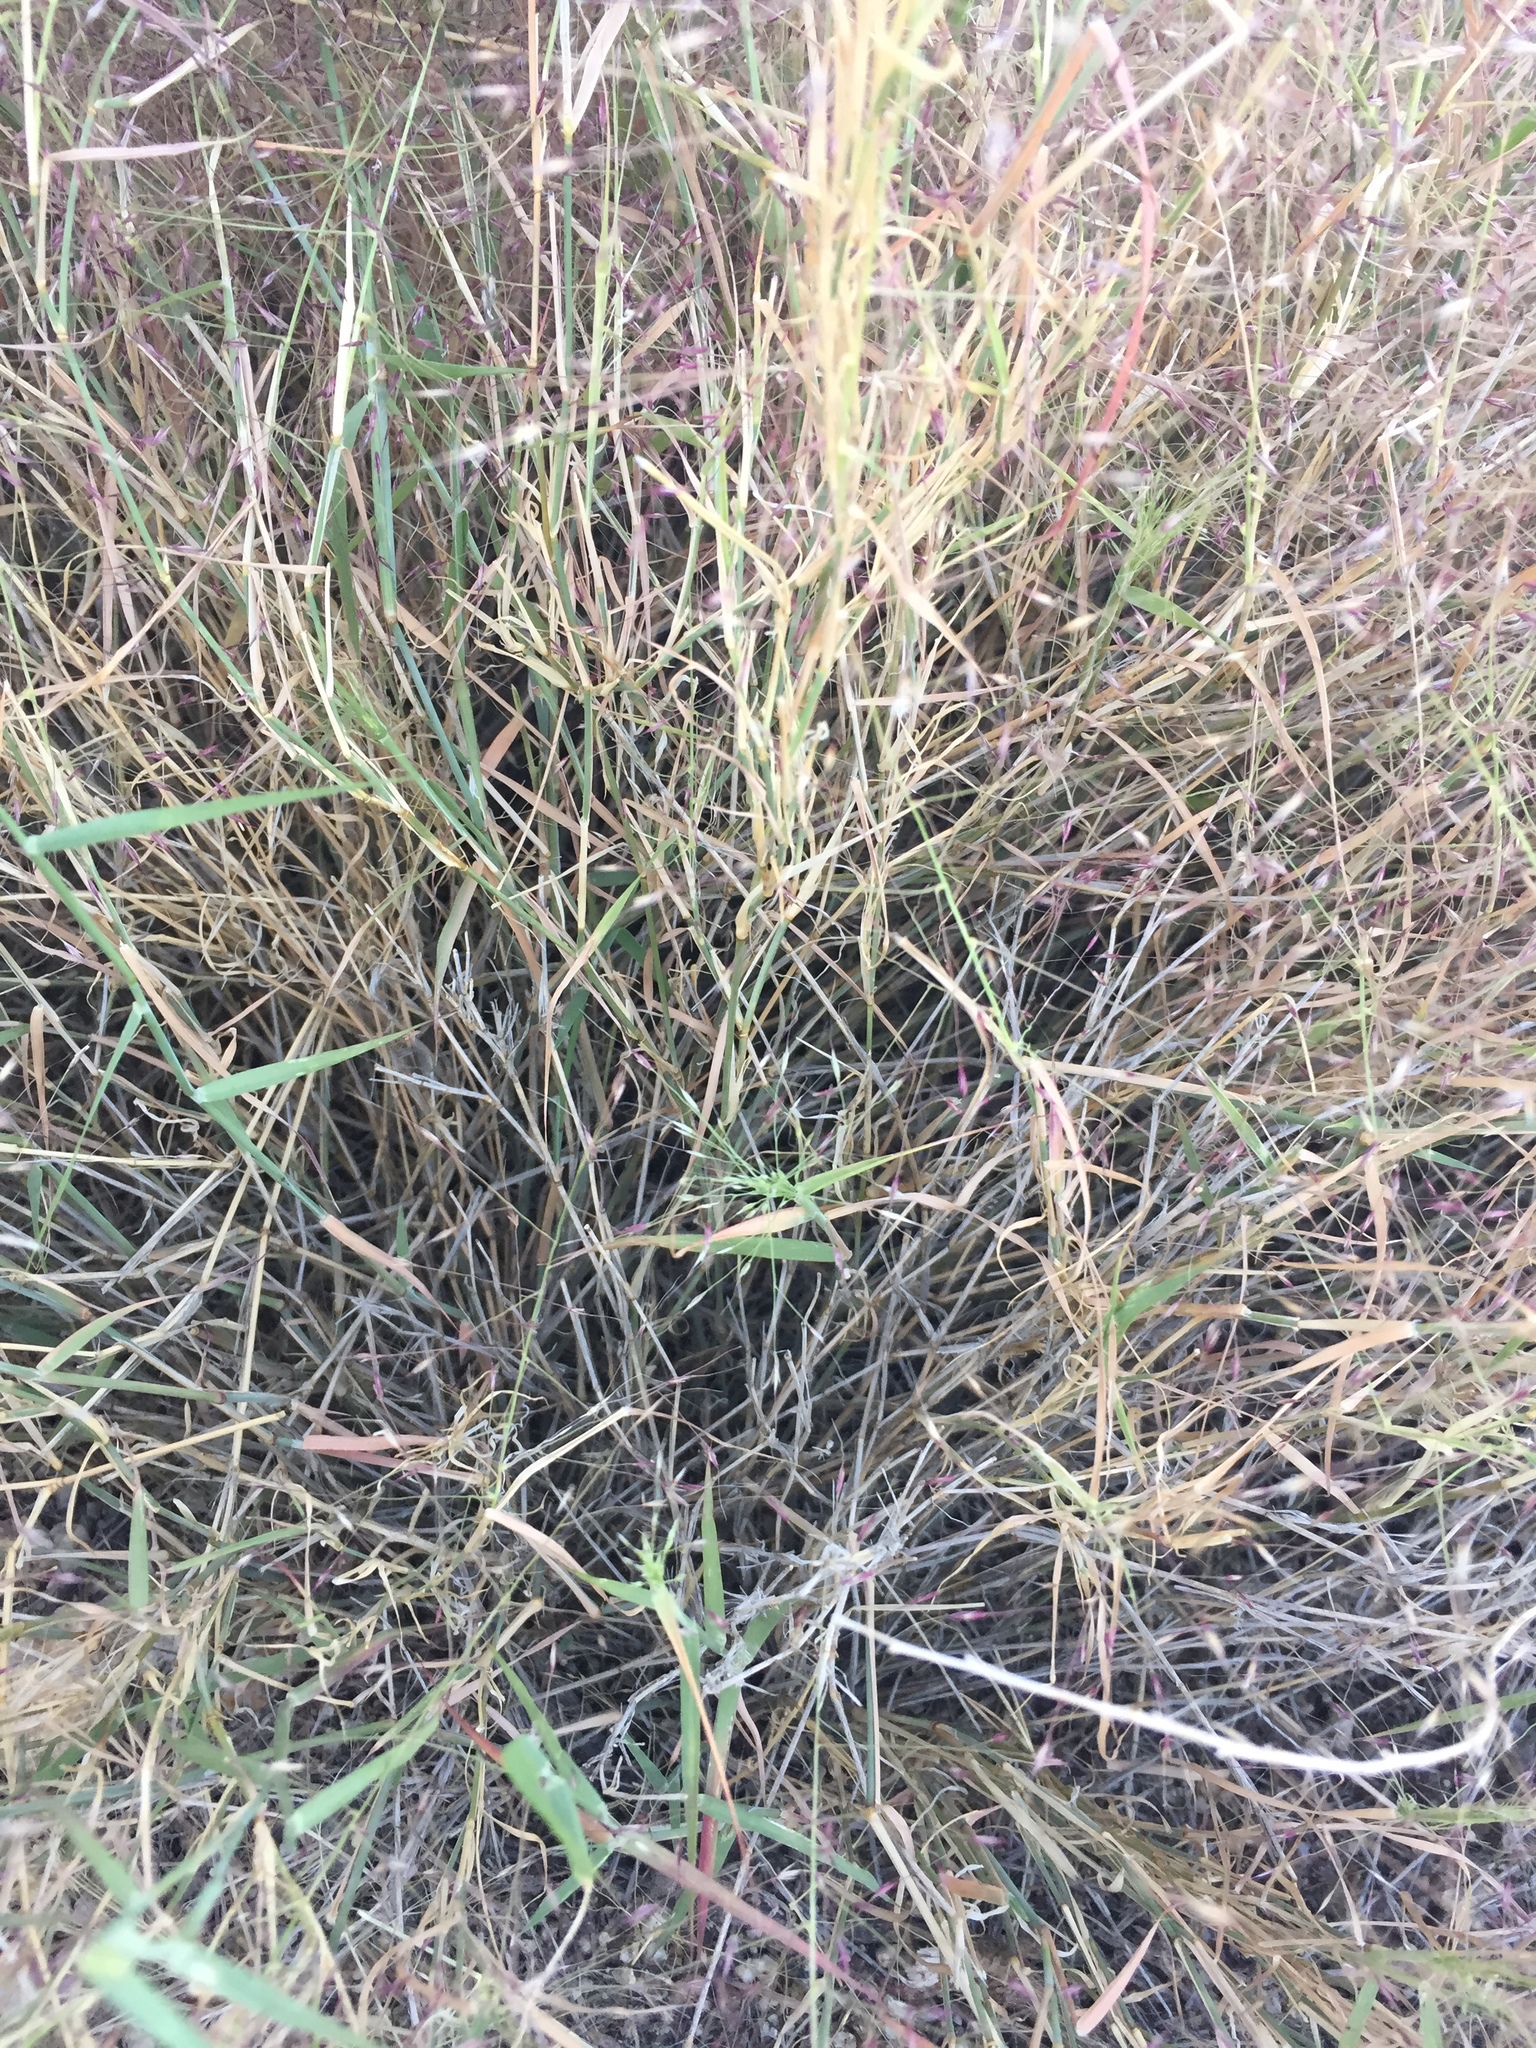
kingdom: Plantae
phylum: Tracheophyta
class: Liliopsida
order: Poales
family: Poaceae
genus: Muhlenbergia
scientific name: Muhlenbergia porteri
